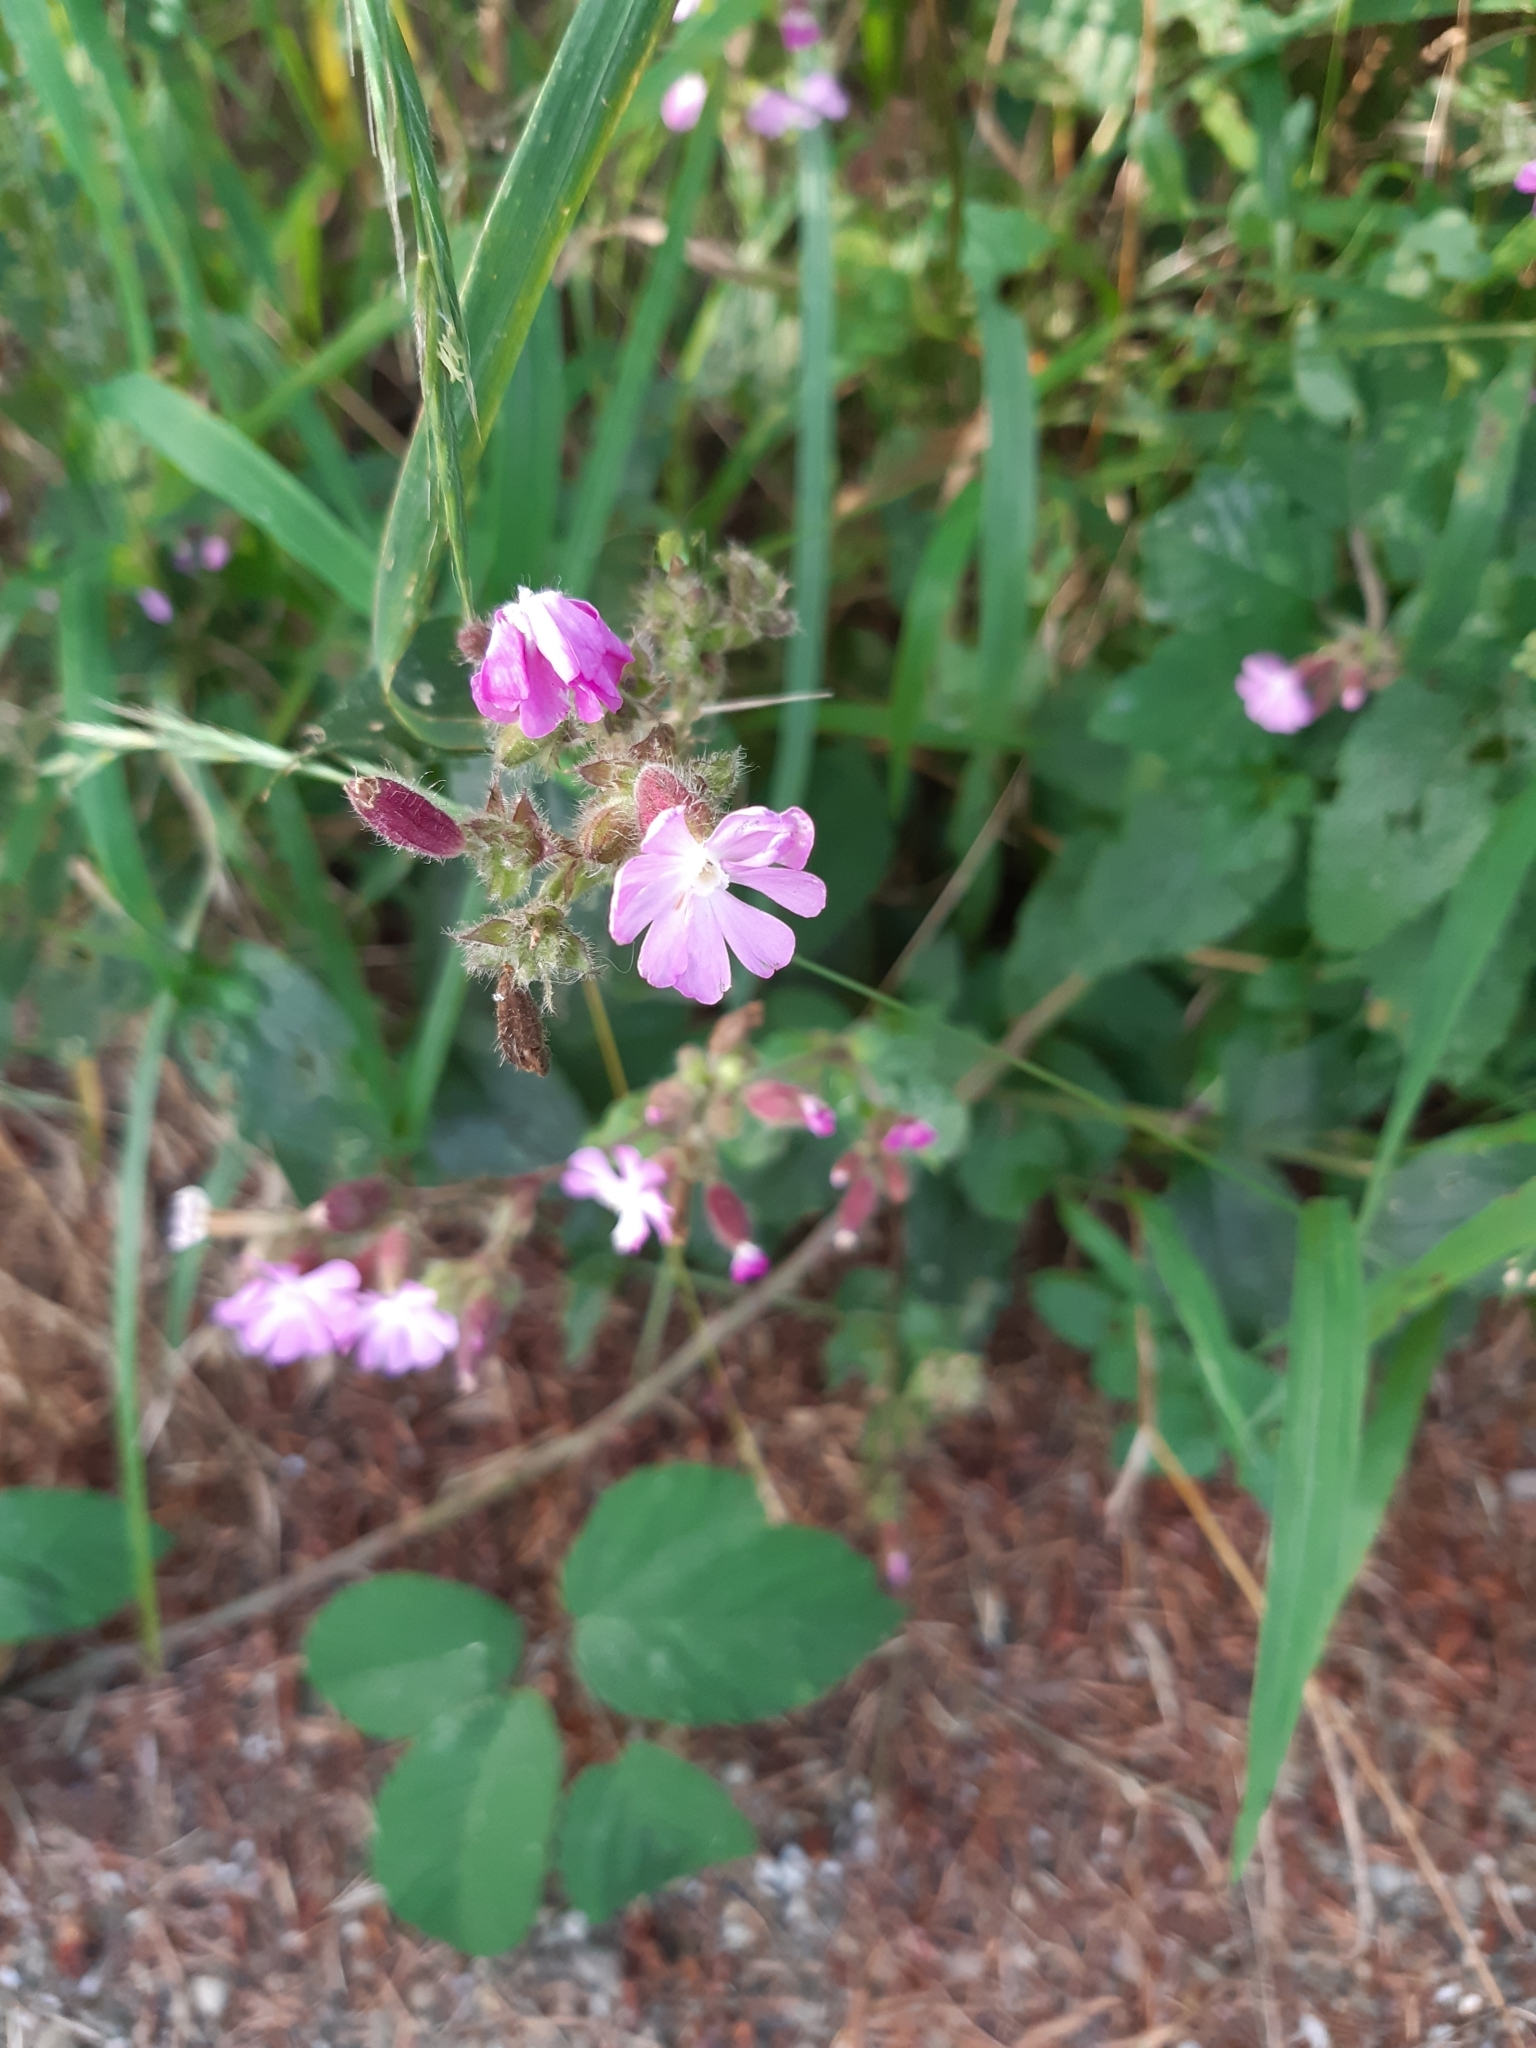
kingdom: Plantae
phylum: Tracheophyta
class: Magnoliopsida
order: Caryophyllales
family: Caryophyllaceae
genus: Silene
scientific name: Silene dioica
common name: Red campion
